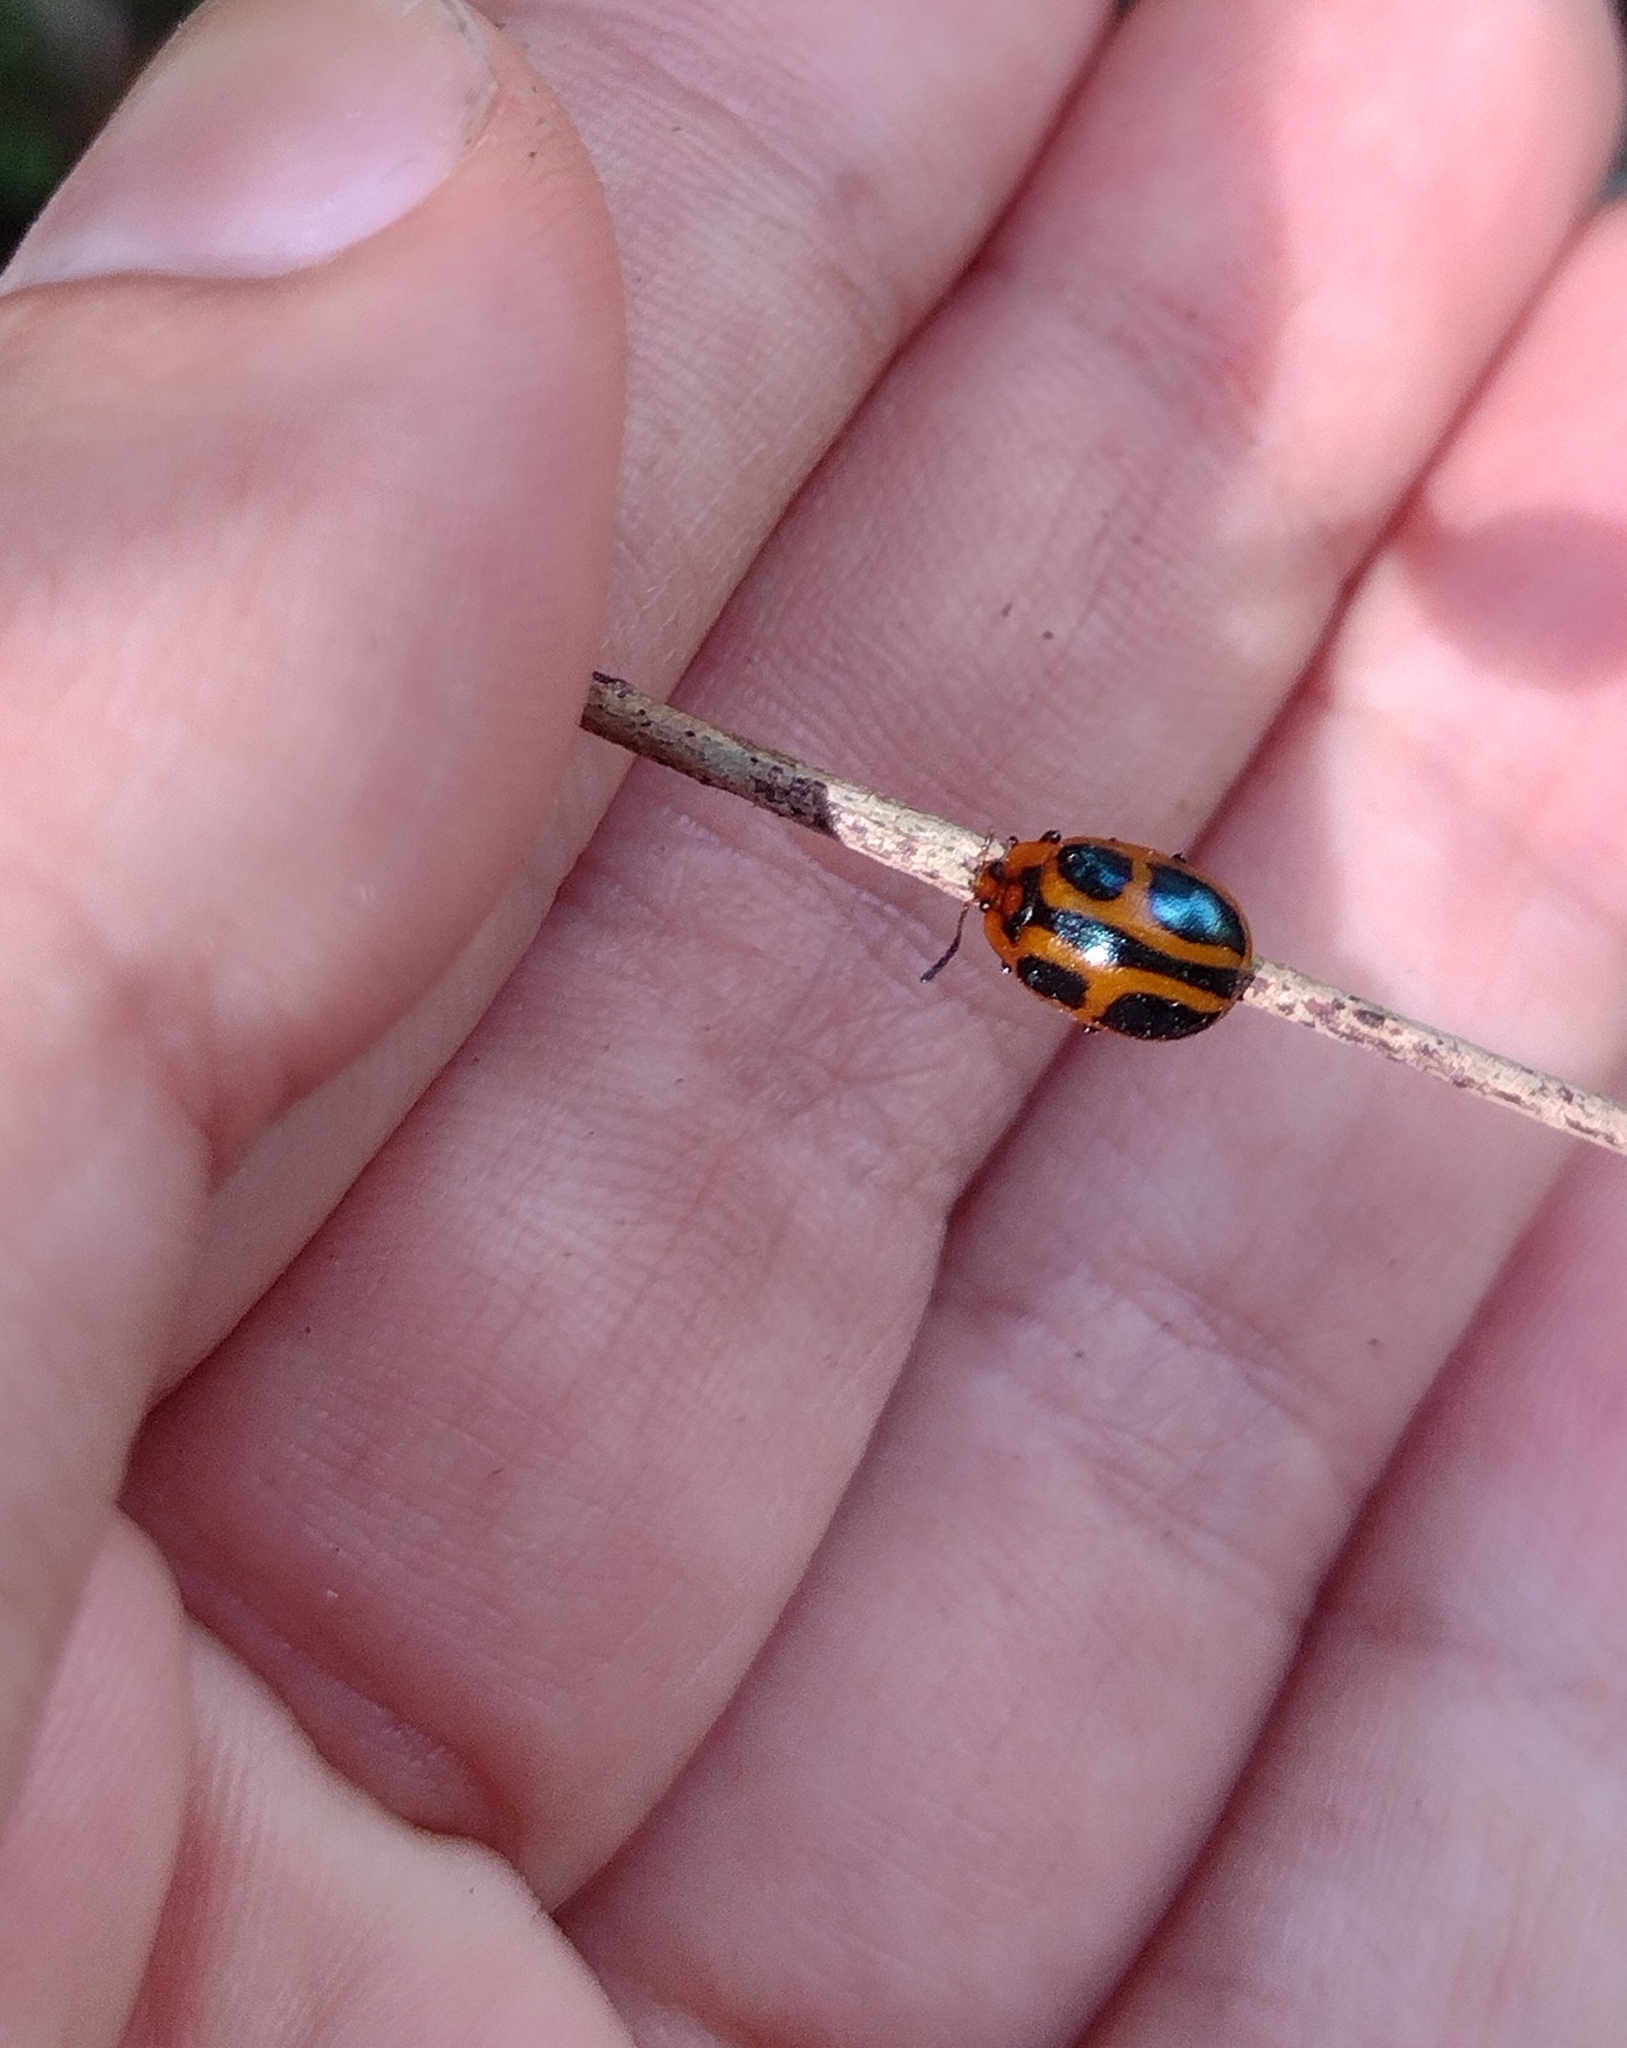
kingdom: Animalia
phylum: Arthropoda
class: Insecta
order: Coleoptera
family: Chrysomelidae
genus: Plagiodera
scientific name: Plagiodera
